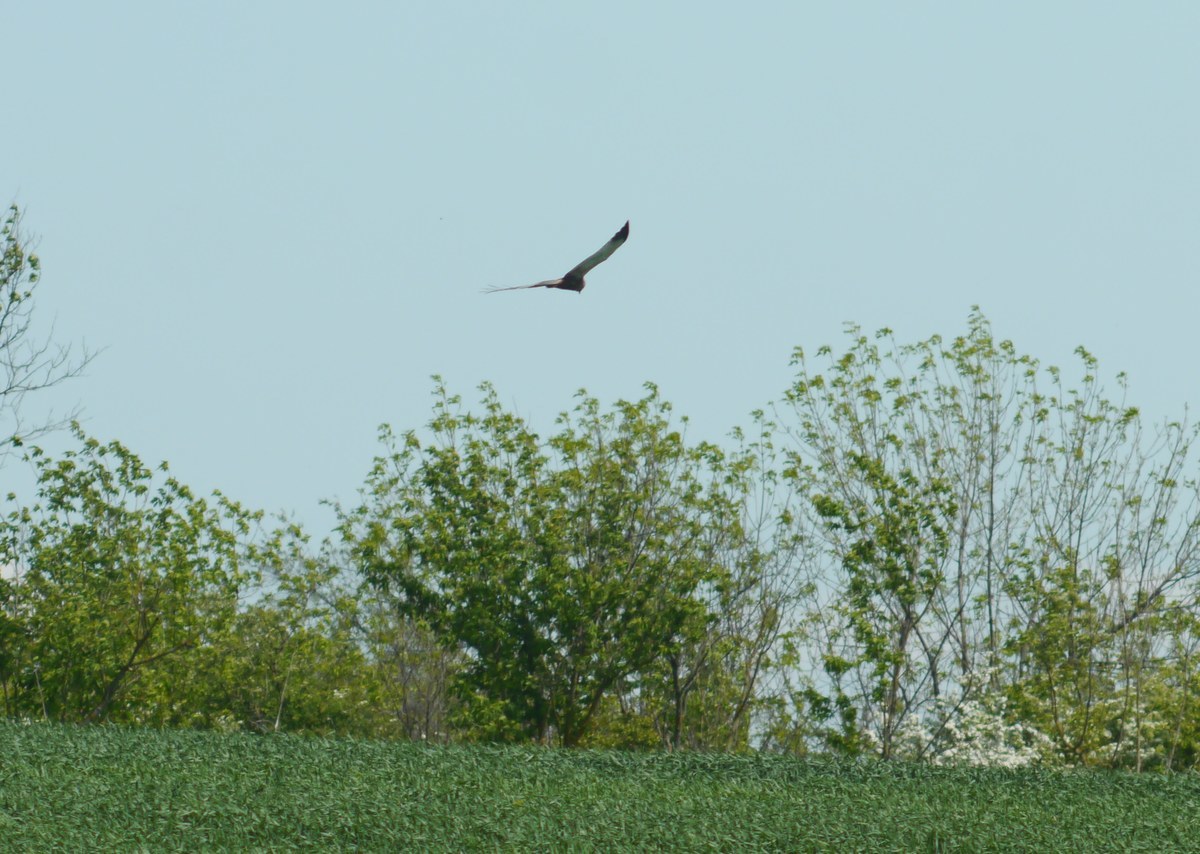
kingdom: Animalia
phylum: Chordata
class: Aves
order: Accipitriformes
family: Accipitridae
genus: Circus
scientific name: Circus aeruginosus
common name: Western marsh harrier
